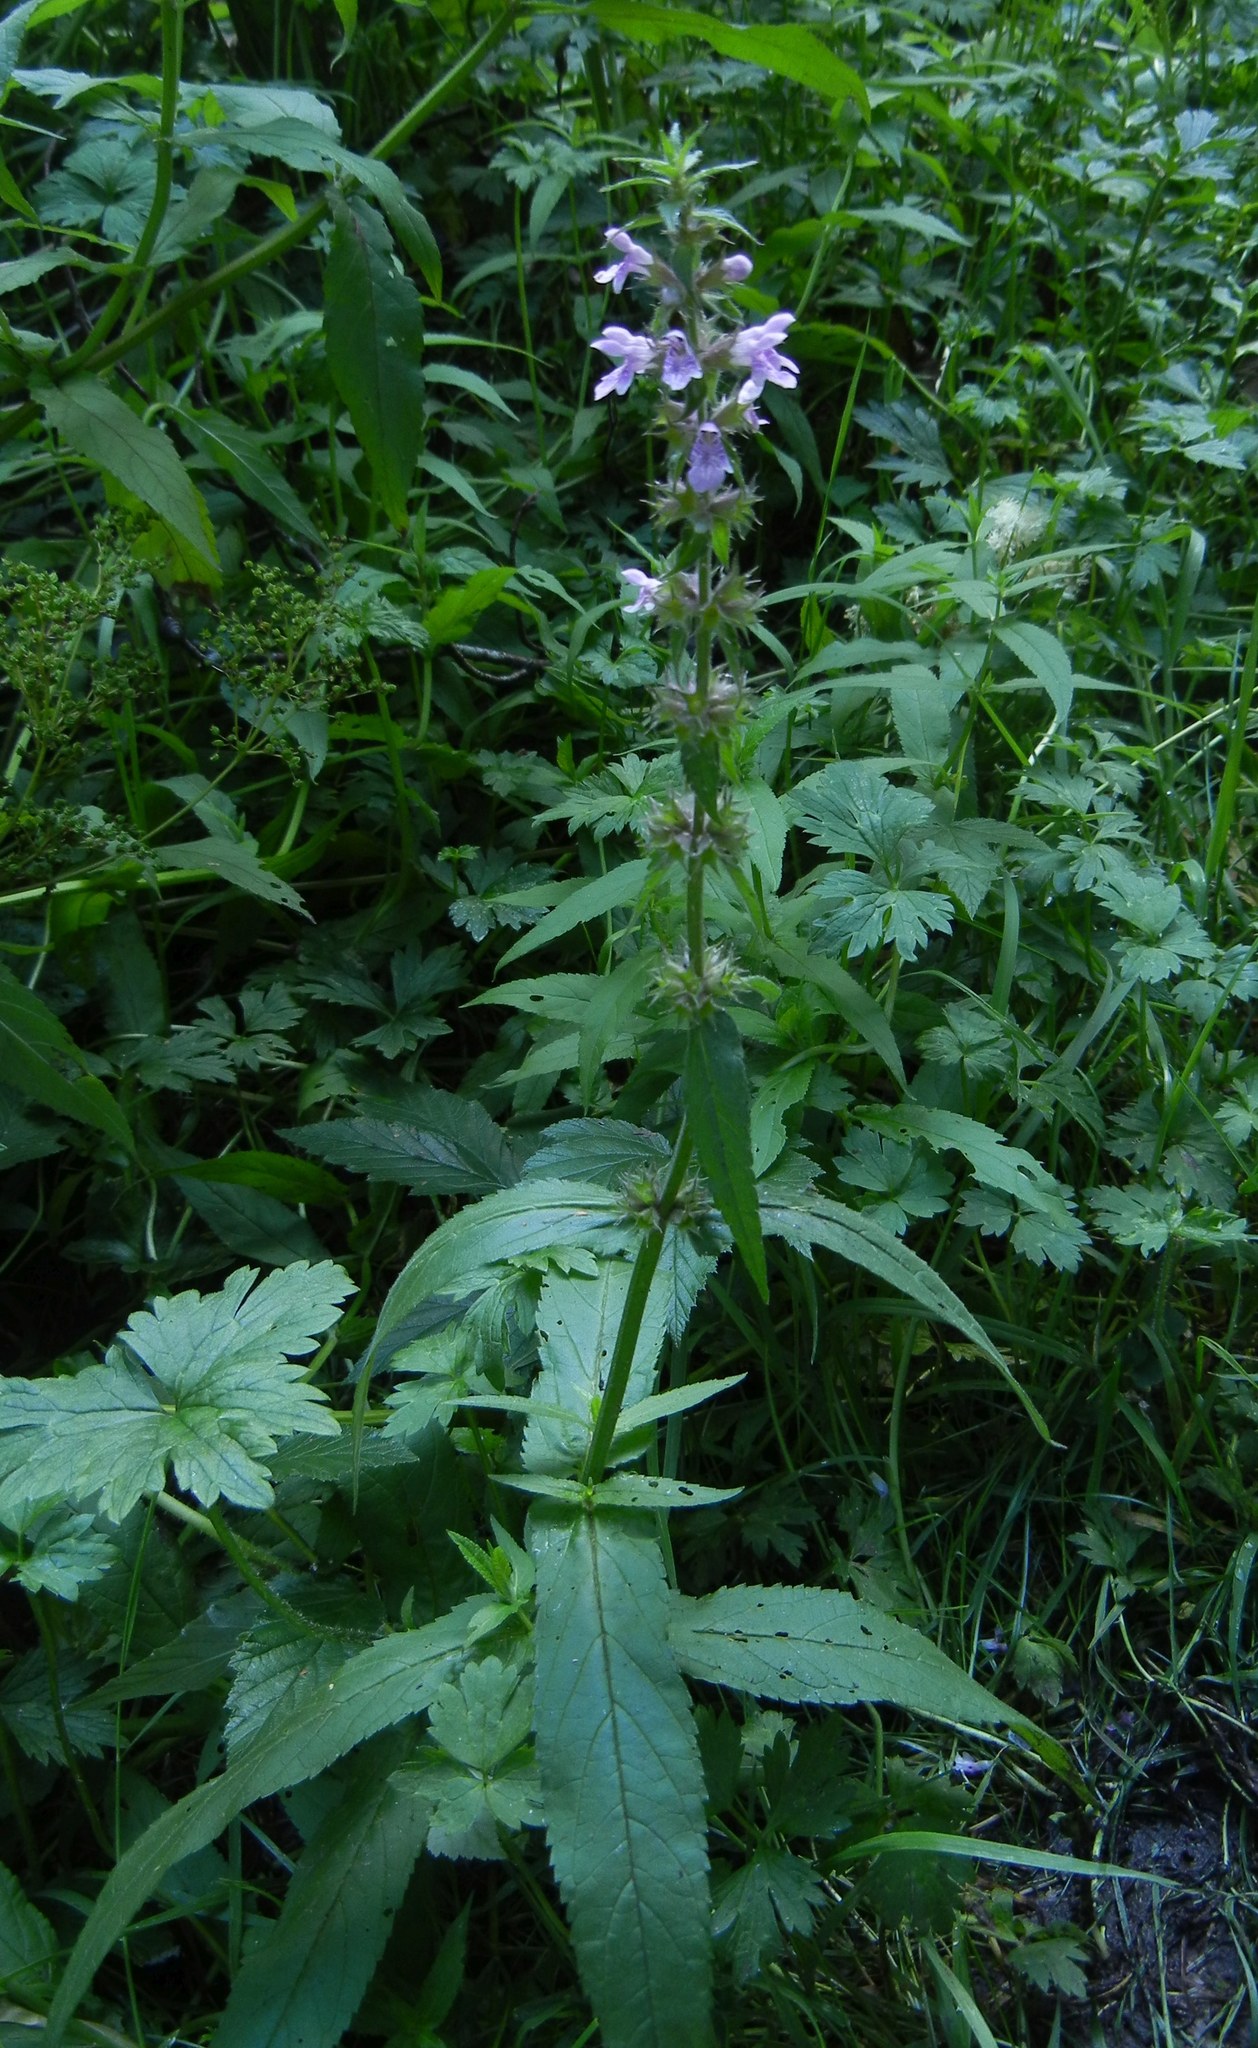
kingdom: Plantae
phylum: Tracheophyta
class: Magnoliopsida
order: Lamiales
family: Lamiaceae
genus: Stachys
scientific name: Stachys palustris
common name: Marsh woundwort
